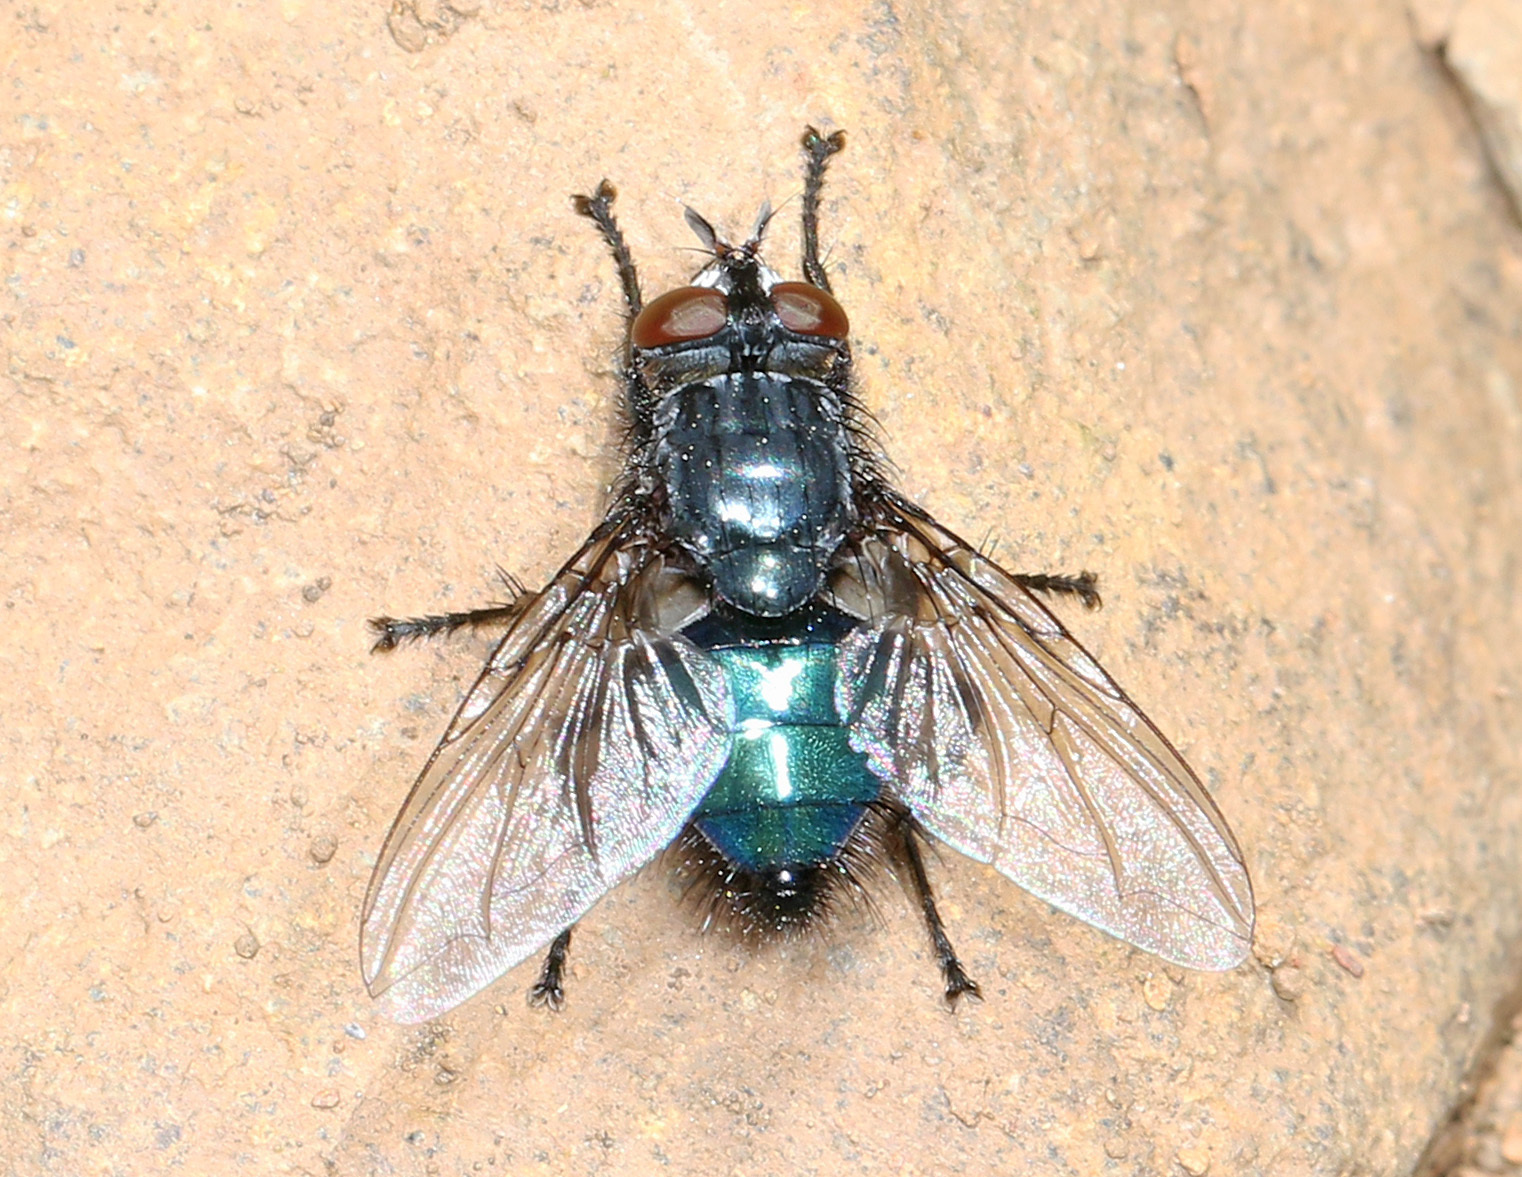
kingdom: Animalia
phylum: Arthropoda
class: Insecta
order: Diptera
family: Calliphoridae
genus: Cynomya
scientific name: Cynomya cadaverina
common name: Shiny blue bottle fly
